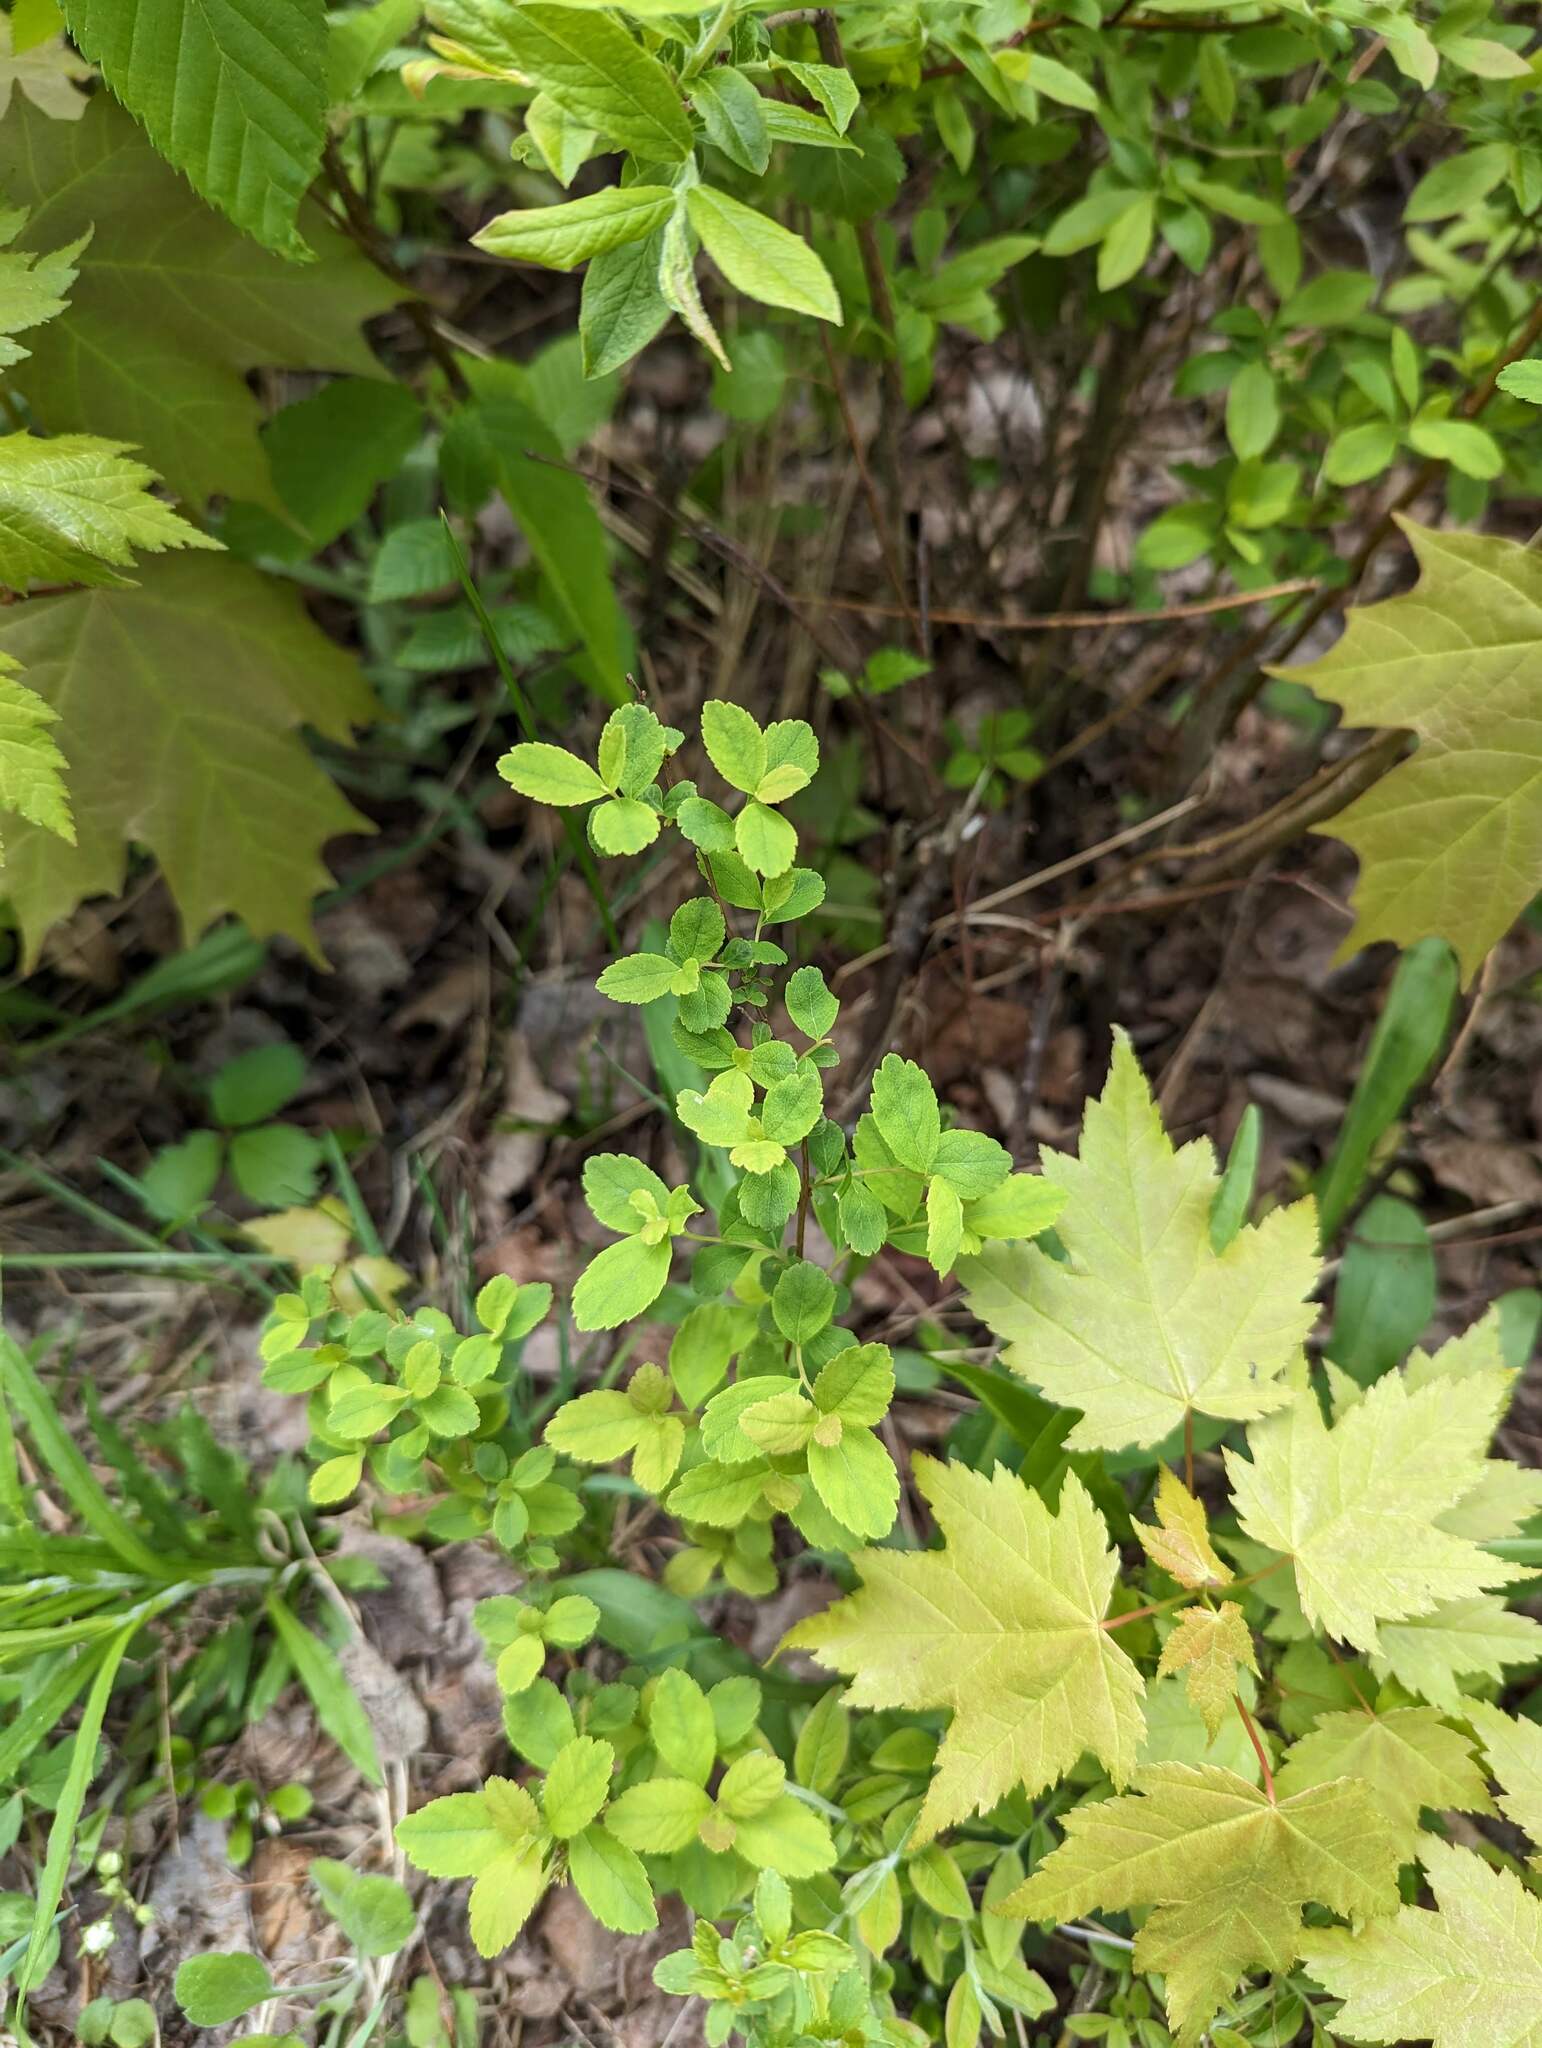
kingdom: Plantae
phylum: Tracheophyta
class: Magnoliopsida
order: Rosales
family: Rosaceae
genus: Spiraea
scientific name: Spiraea alba
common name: Pale bridewort
